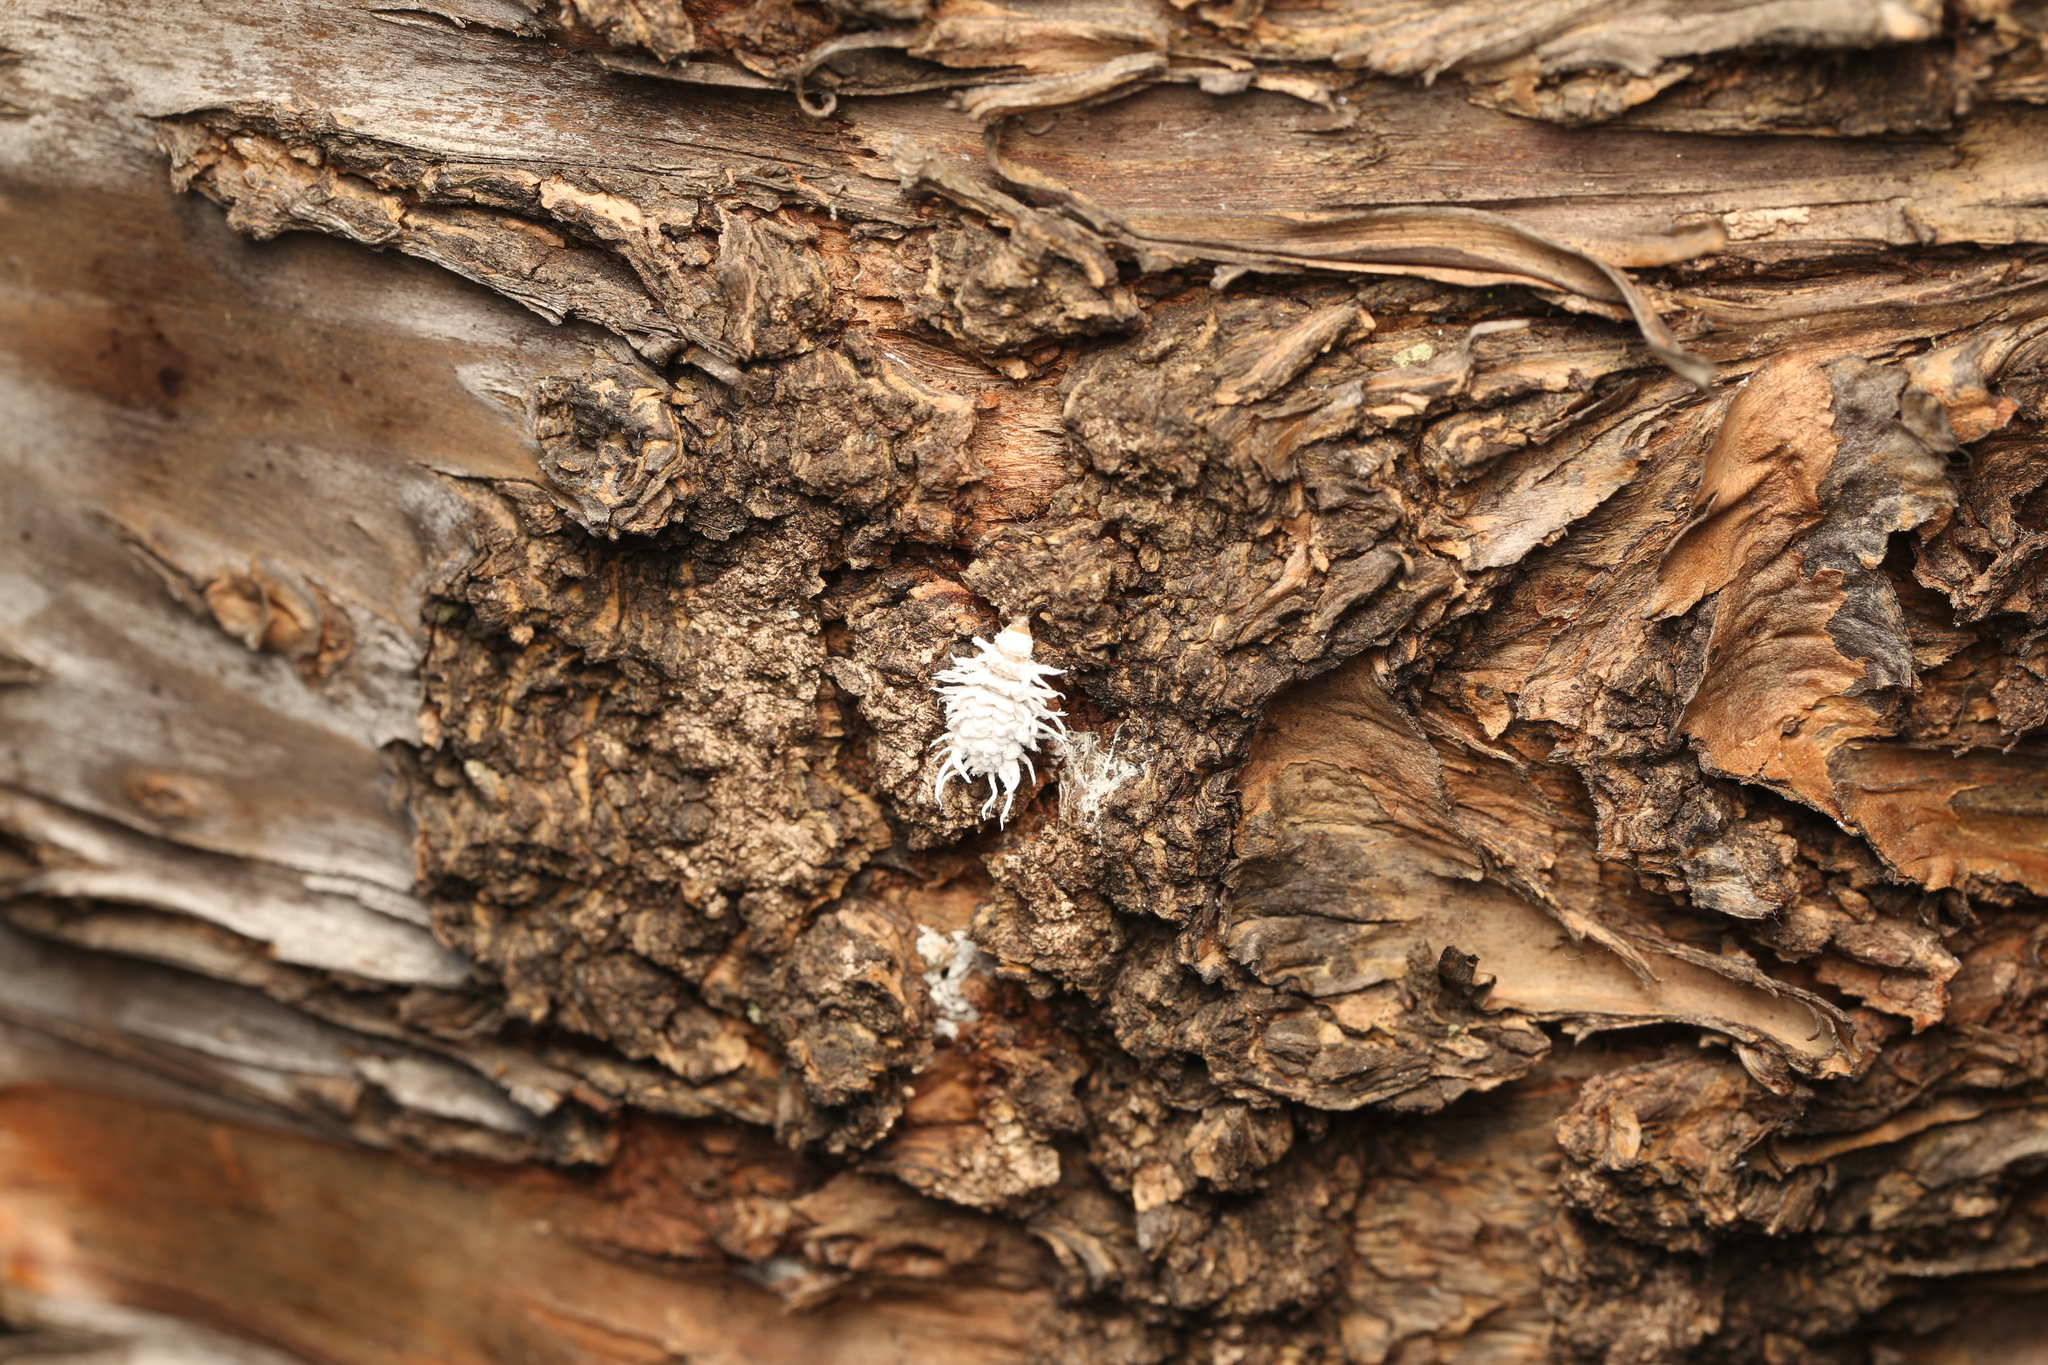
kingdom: Animalia
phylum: Arthropoda
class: Insecta
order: Coleoptera
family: Coccinellidae
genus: Cryptolaemus
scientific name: Cryptolaemus montrouzieri
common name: Mealybug destroyer
